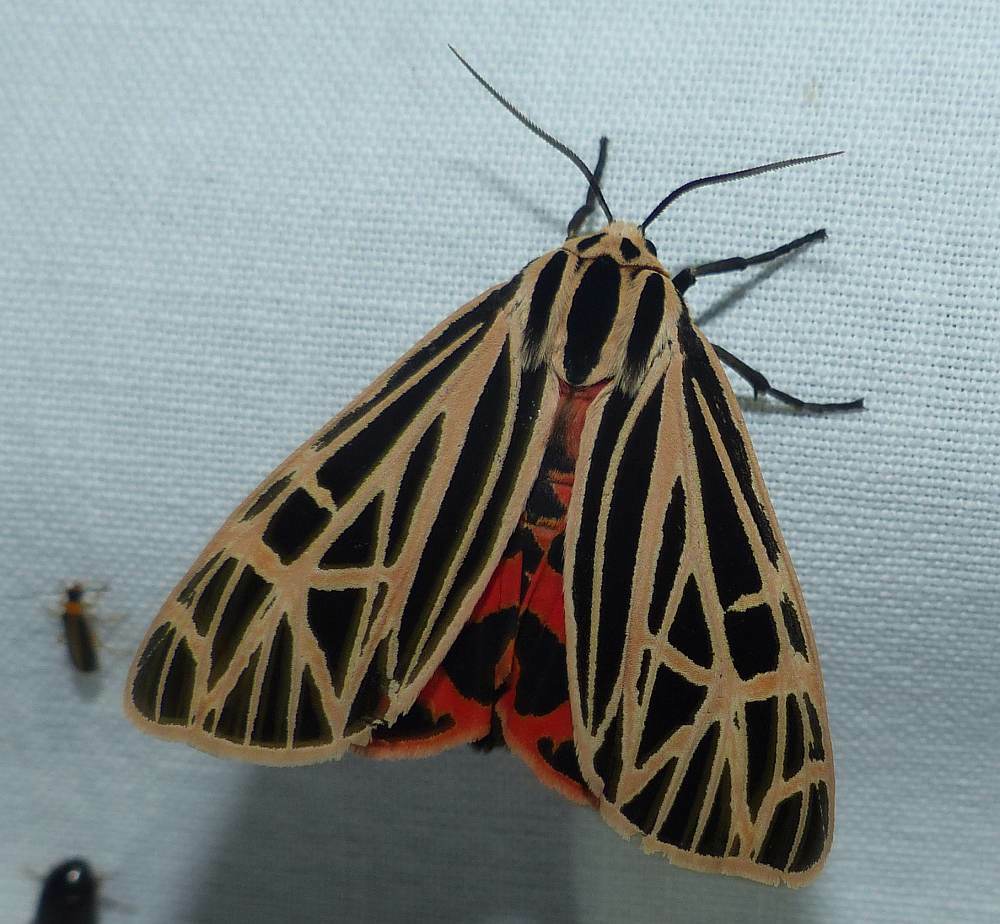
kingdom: Animalia
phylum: Arthropoda
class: Insecta
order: Lepidoptera
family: Erebidae
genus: Grammia
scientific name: Grammia virgo
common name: Virgin tiger moth
